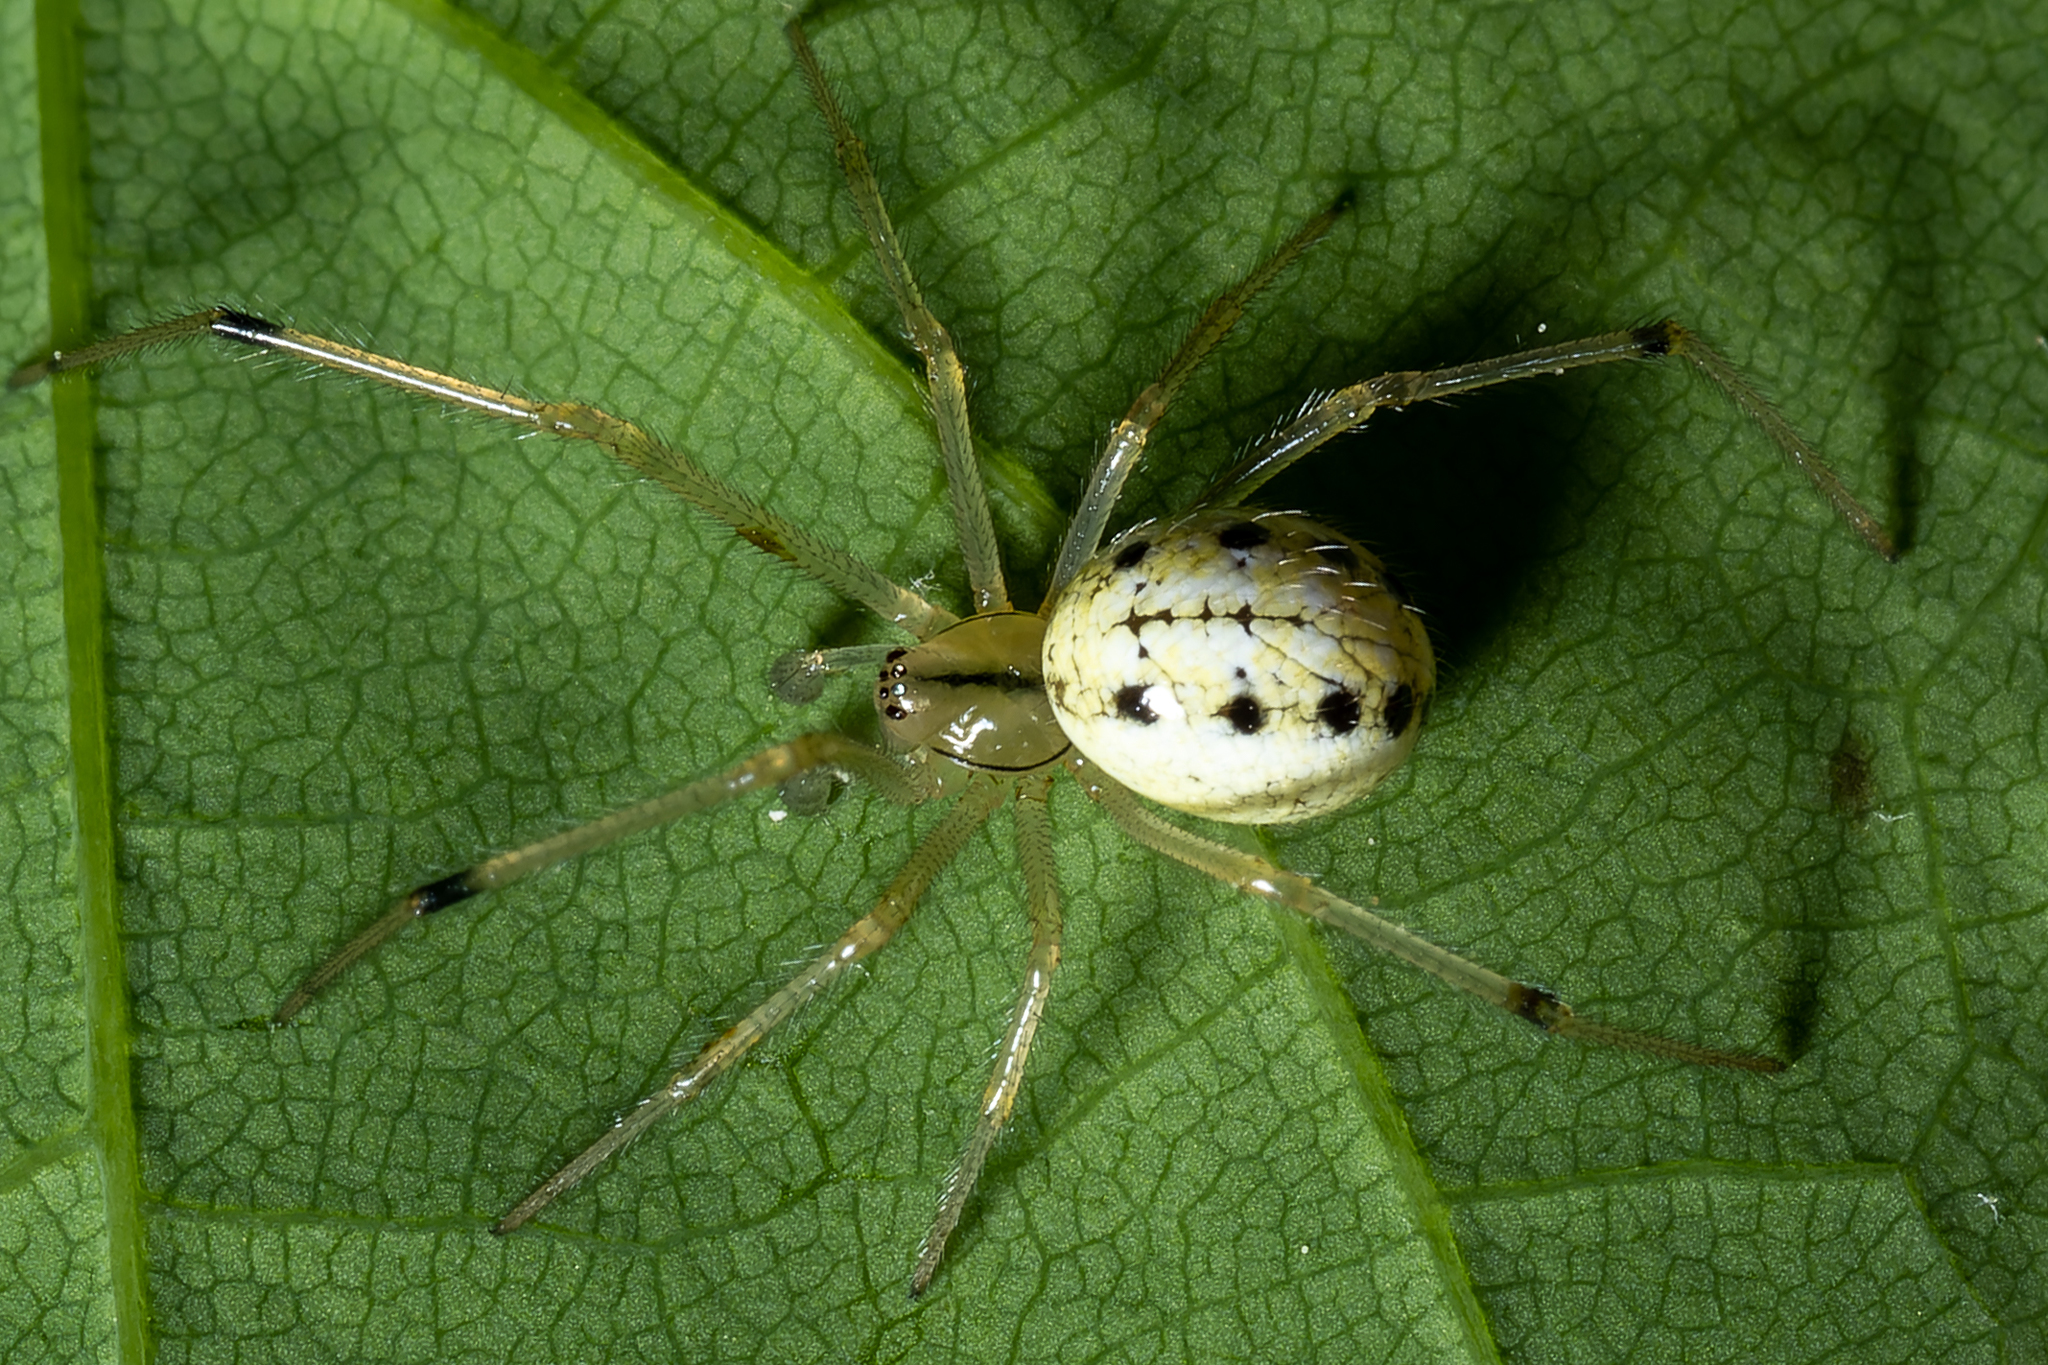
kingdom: Animalia
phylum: Arthropoda
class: Arachnida
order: Araneae
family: Theridiidae
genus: Enoplognatha
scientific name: Enoplognatha ovata
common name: Common candy-striped spider
